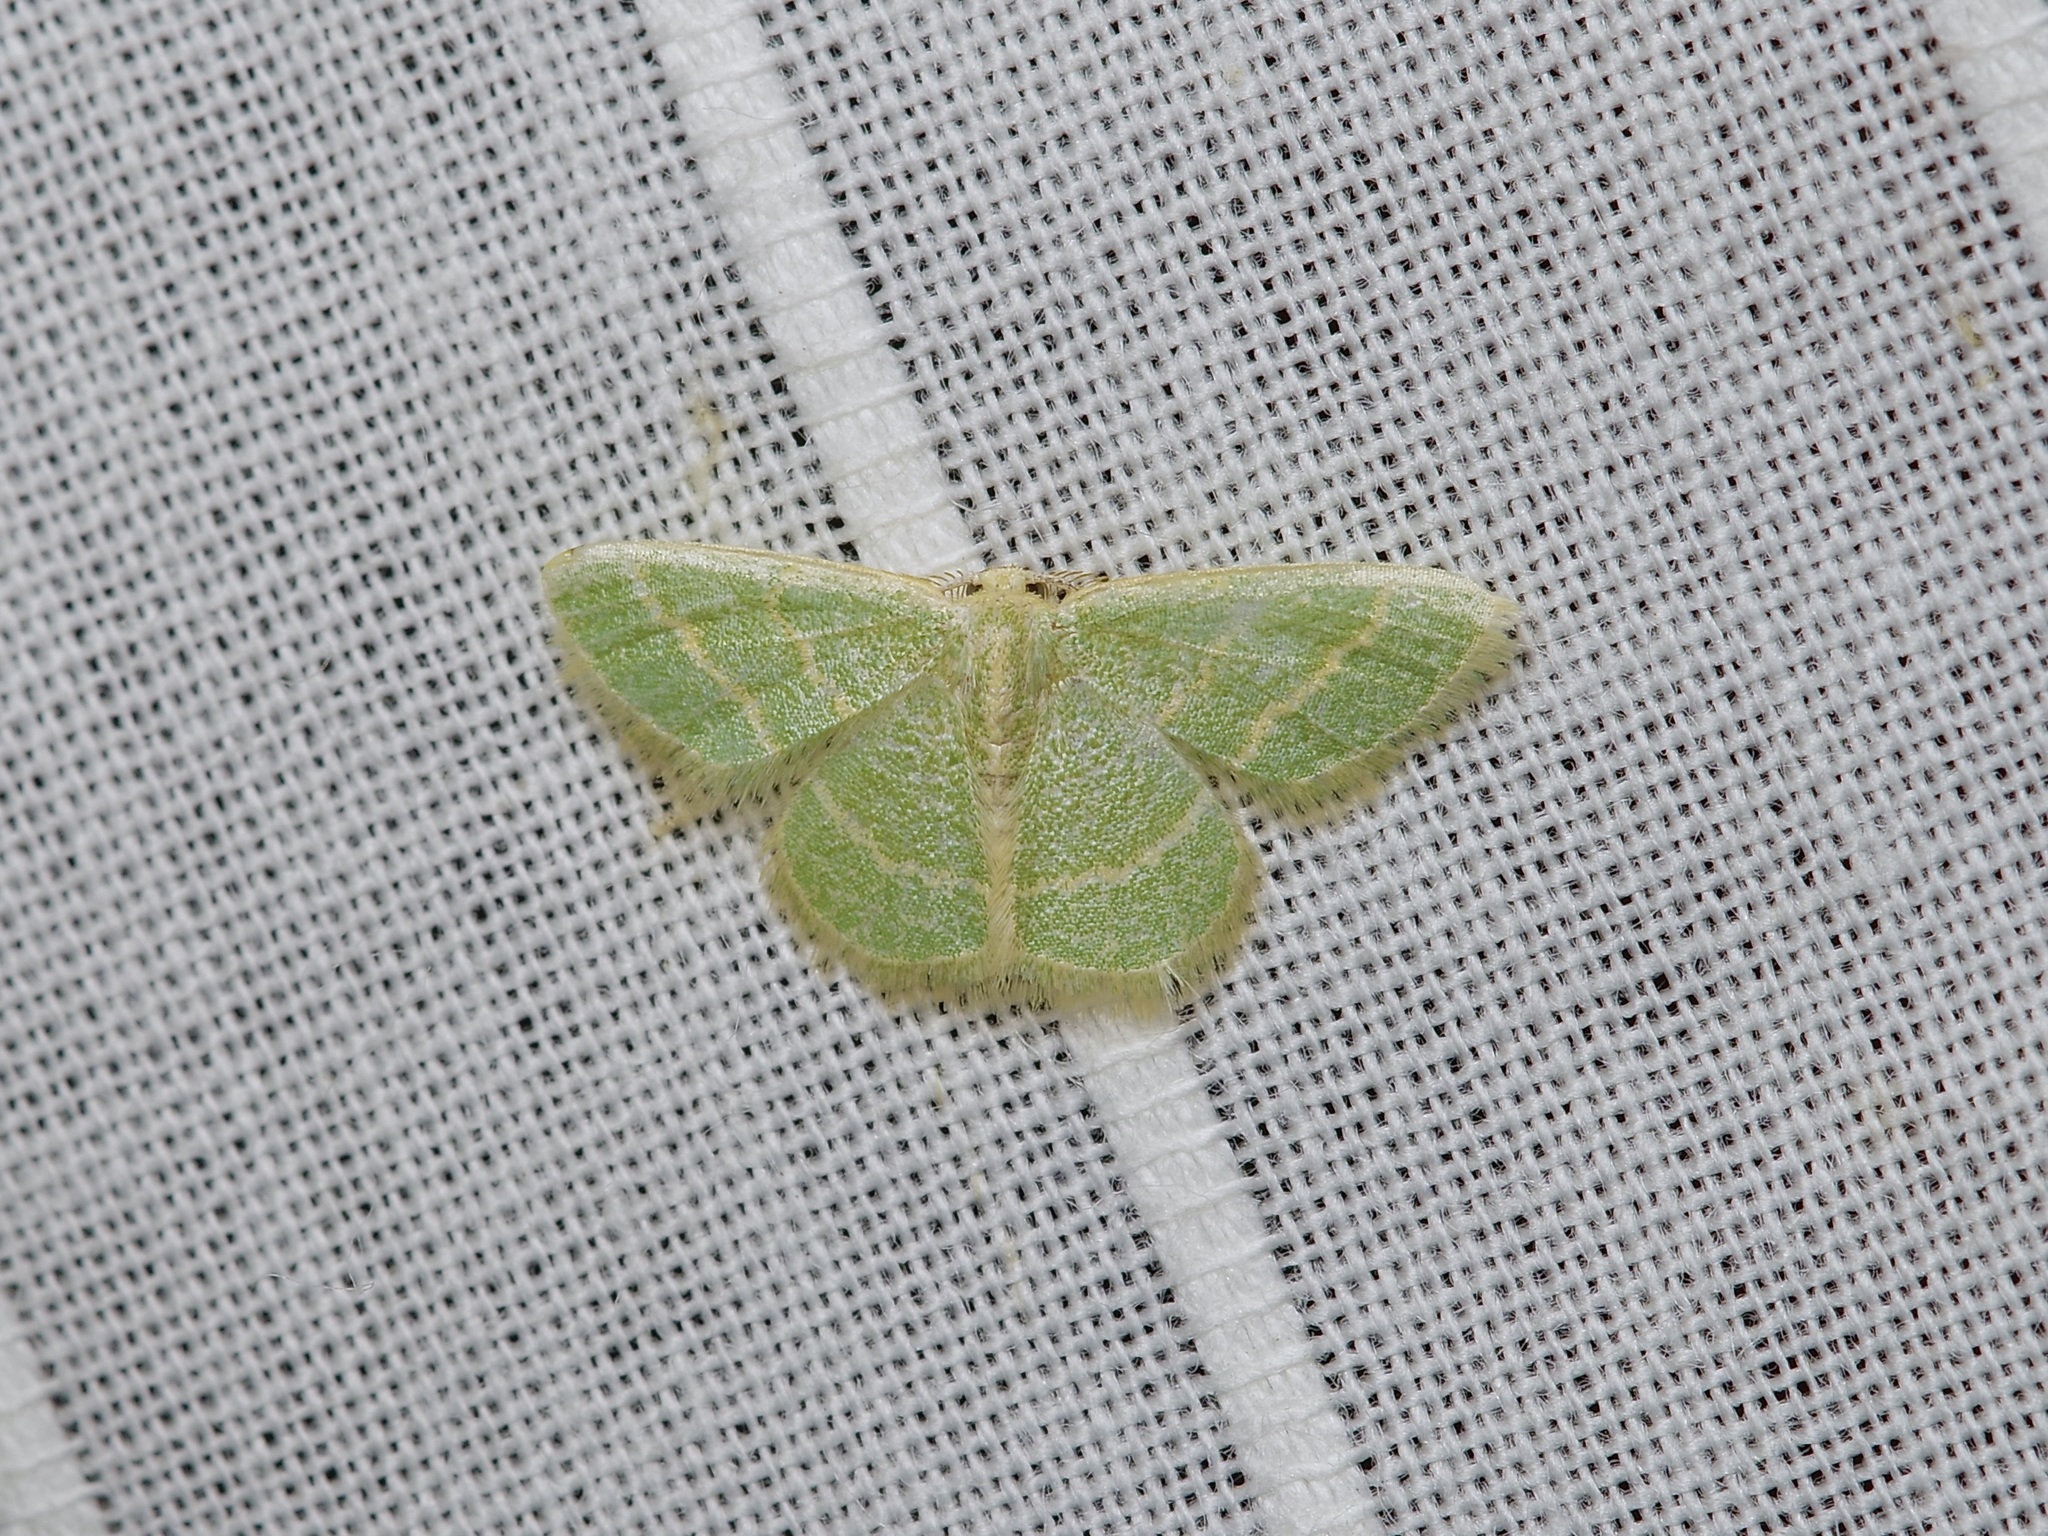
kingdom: Animalia
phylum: Arthropoda
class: Insecta
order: Lepidoptera
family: Geometridae
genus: Chlorochlamys
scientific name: Chlorochlamys chloroleucaria
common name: Blackberry looper
